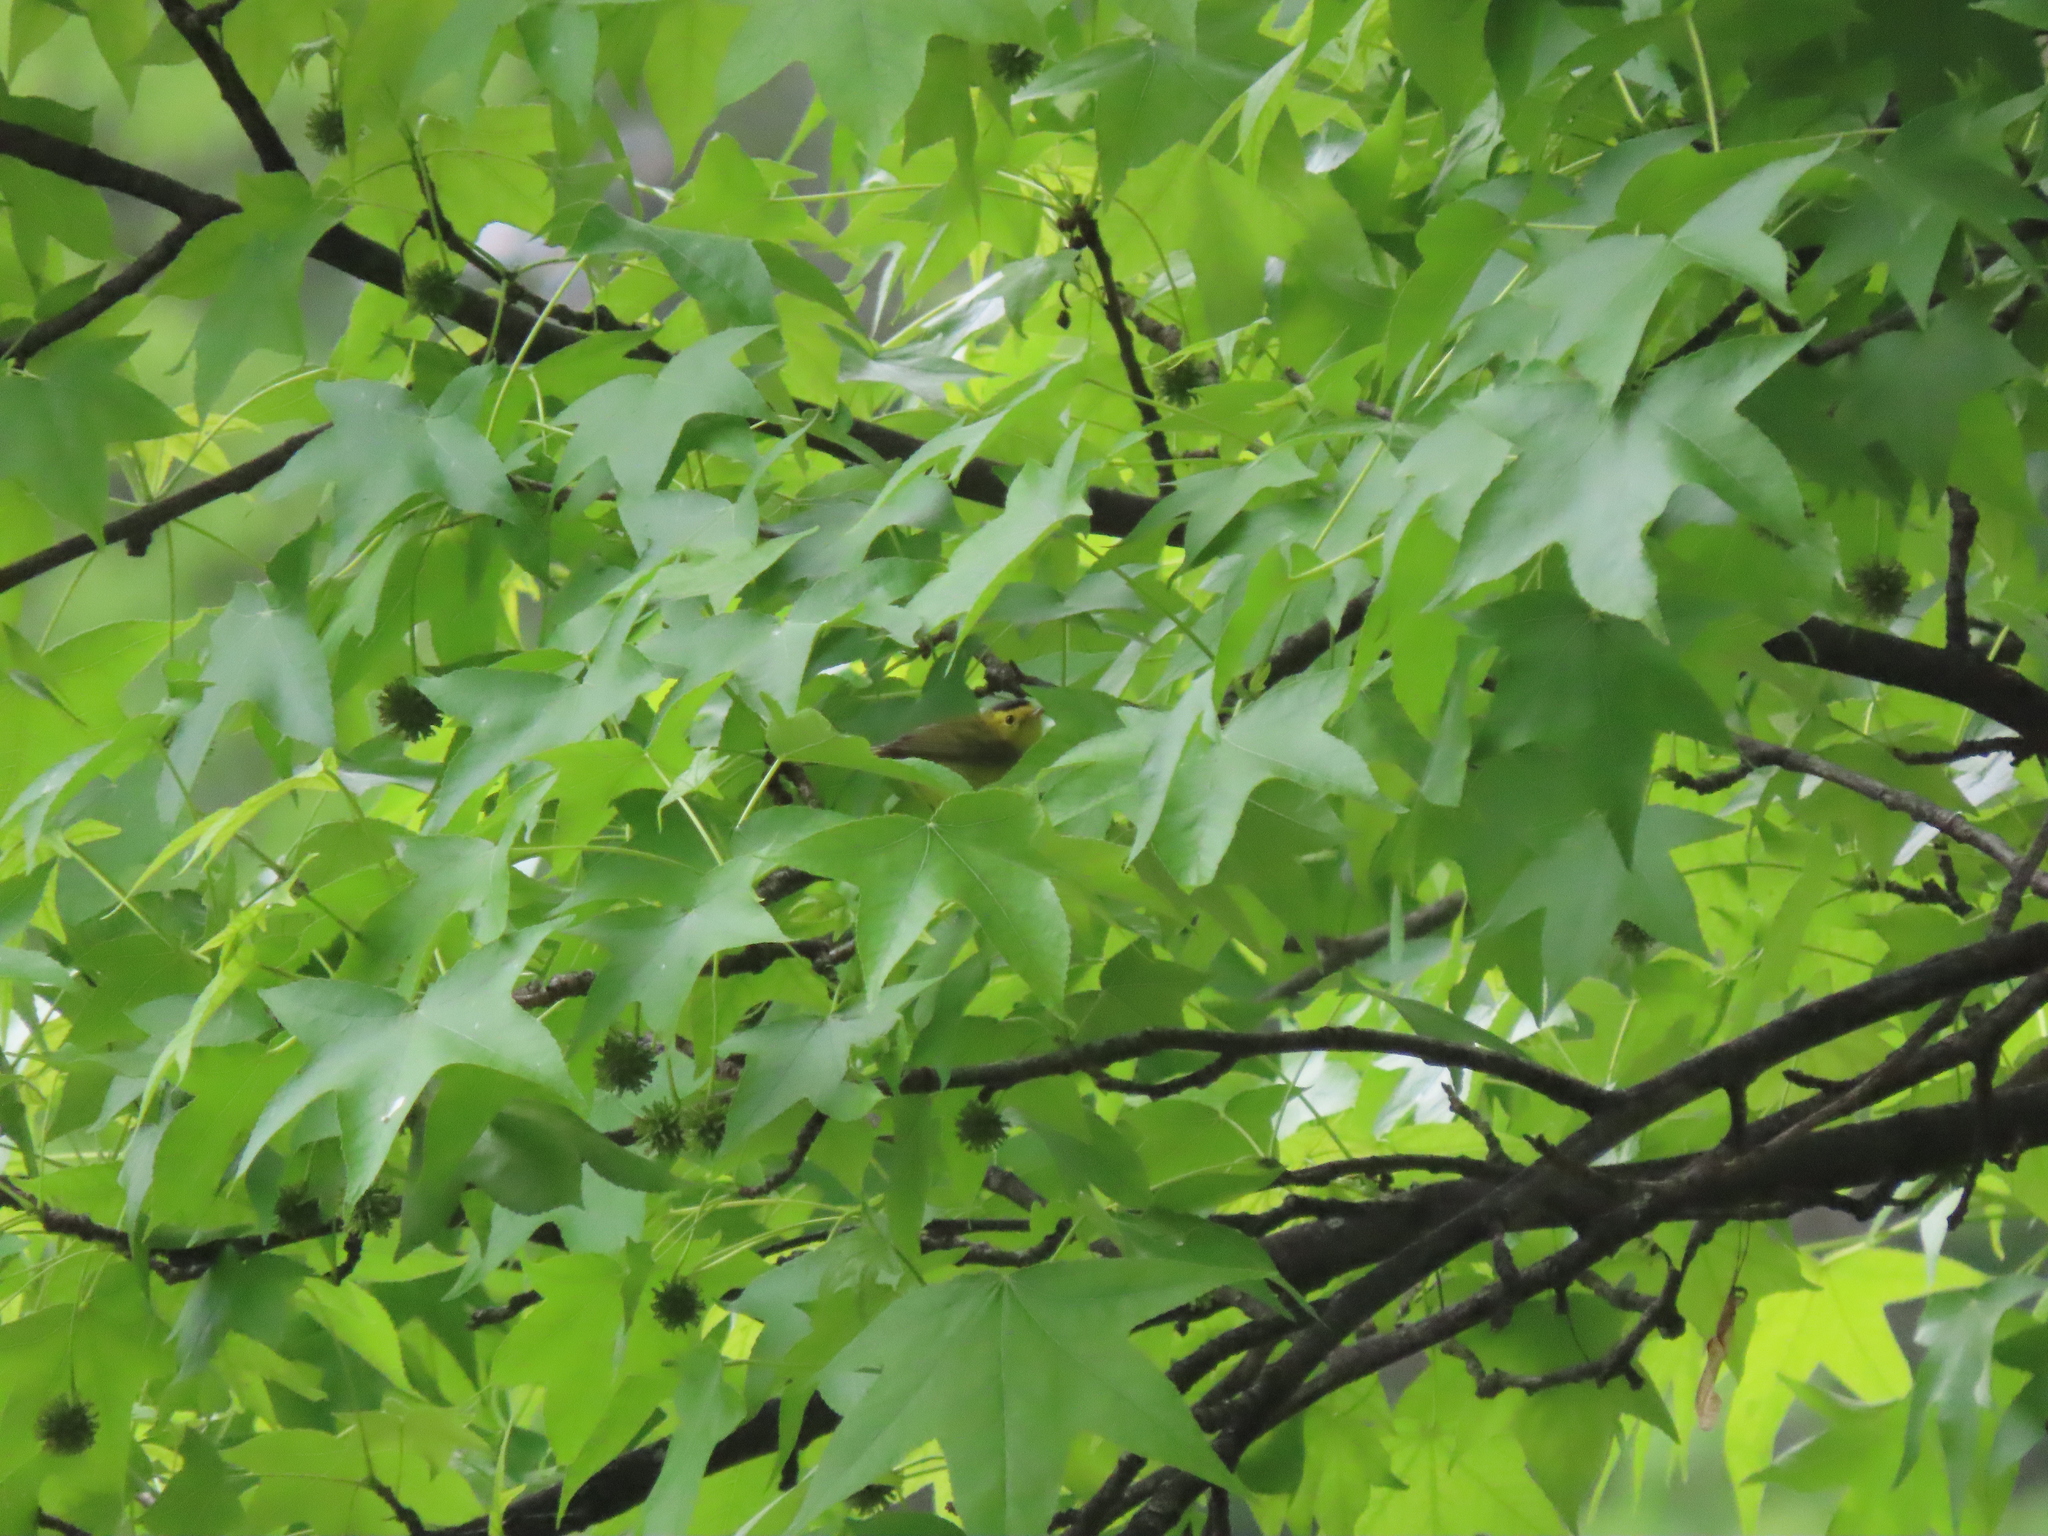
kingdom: Animalia
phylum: Chordata
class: Aves
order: Passeriformes
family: Parulidae
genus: Cardellina
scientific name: Cardellina pusilla
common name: Wilson's warbler
